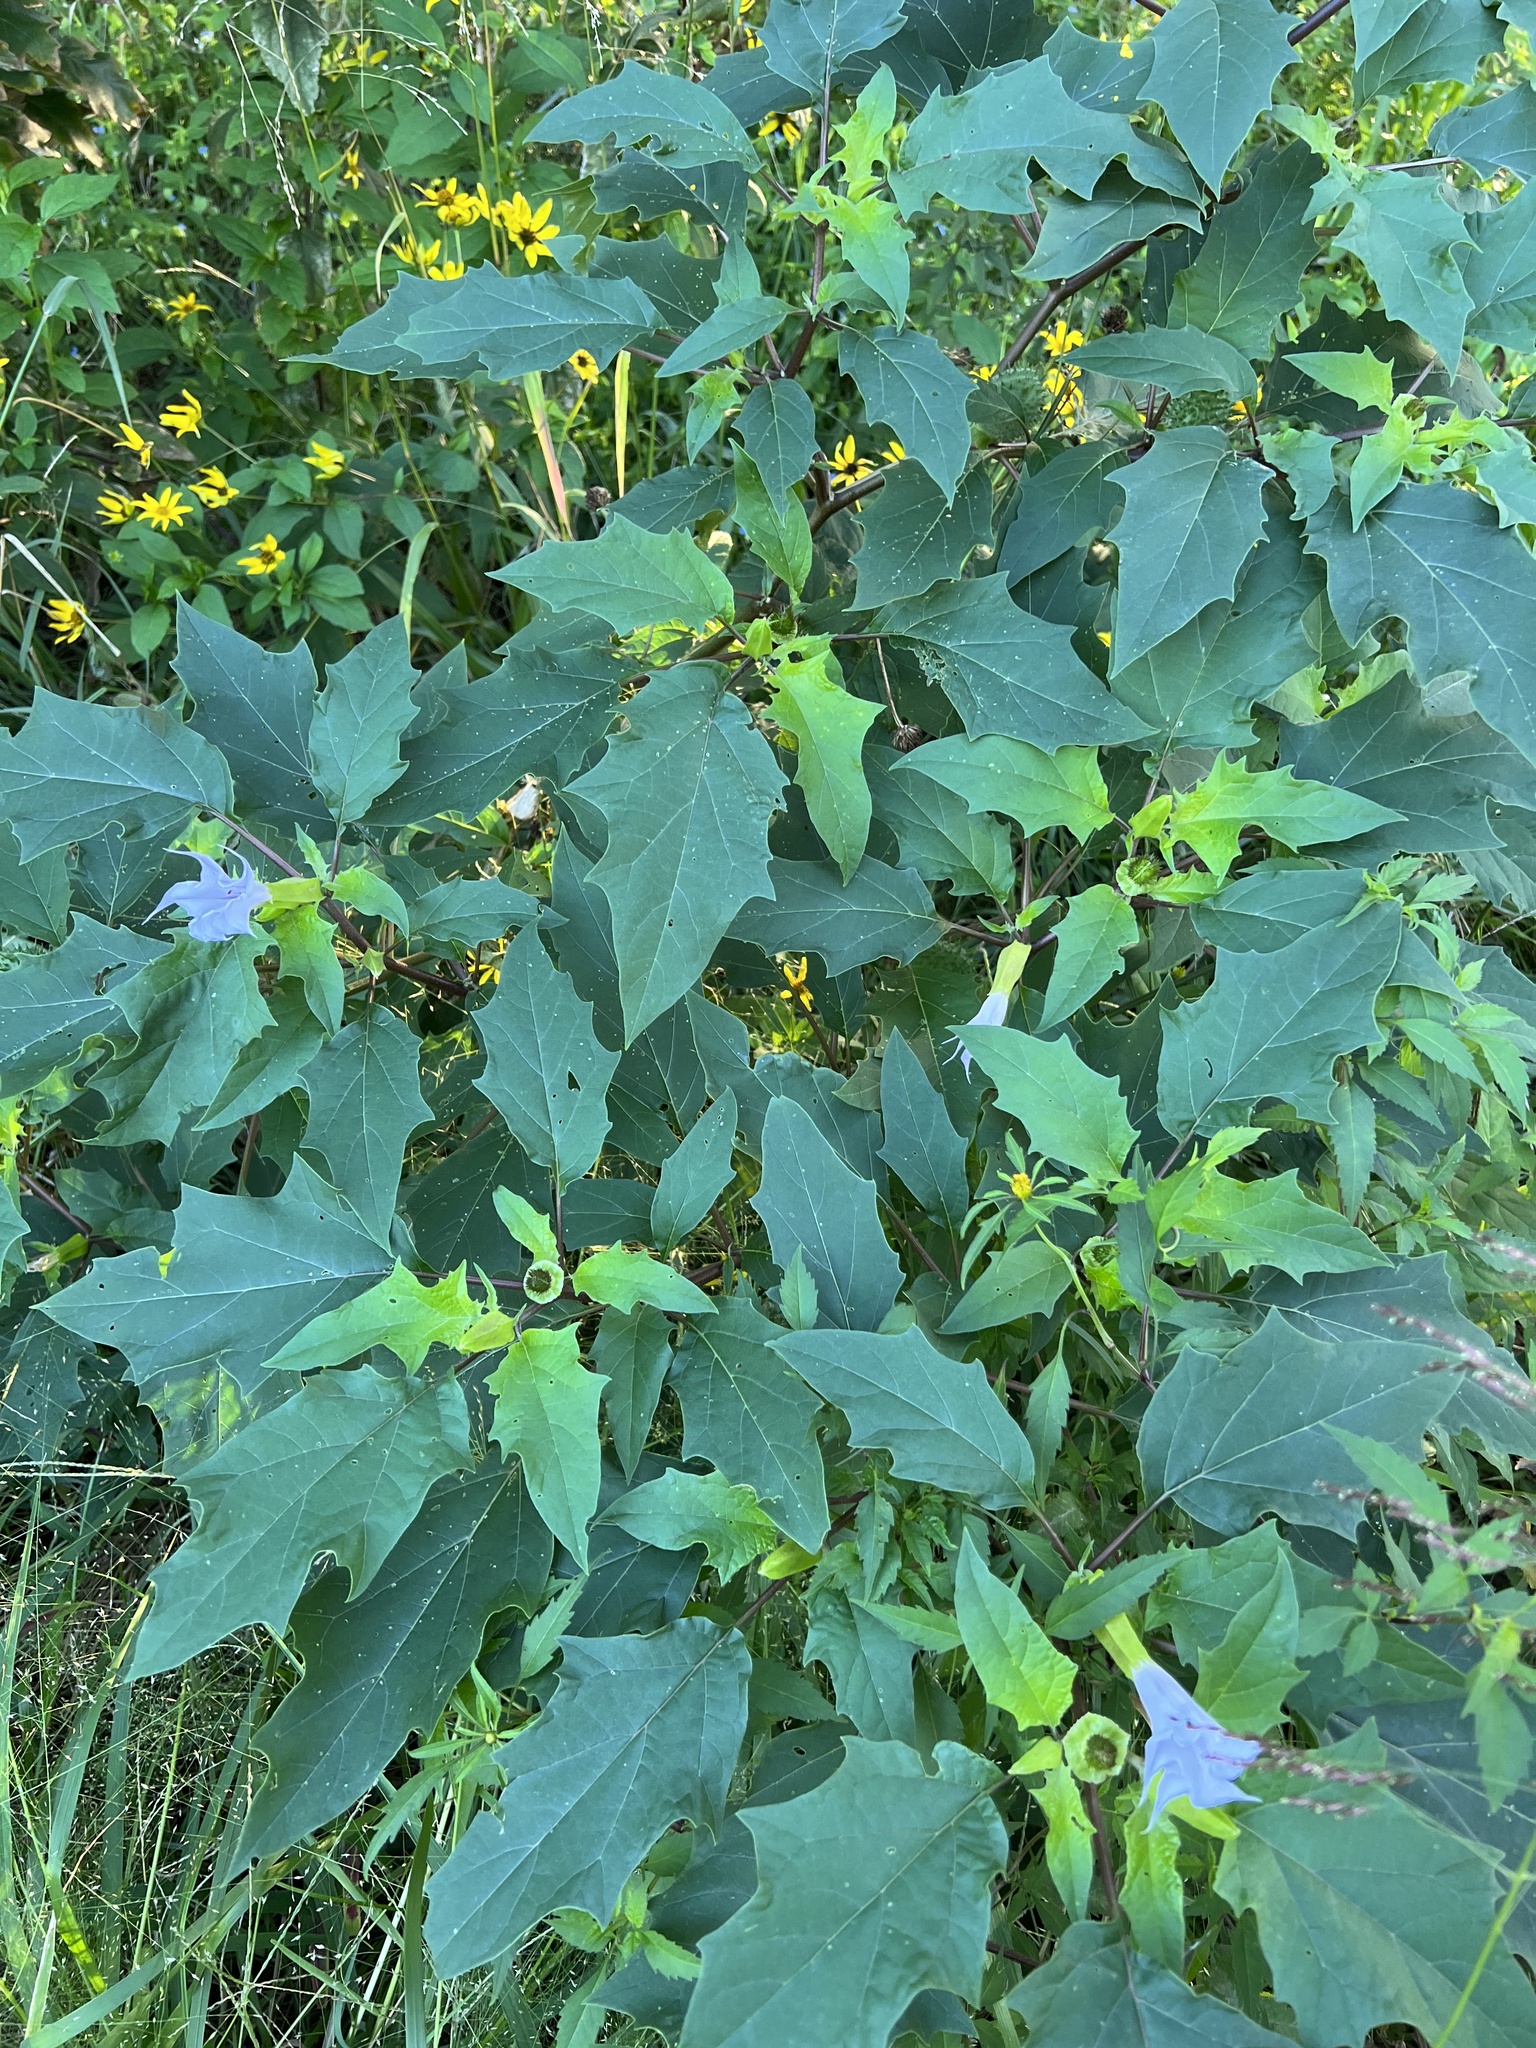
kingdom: Plantae
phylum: Tracheophyta
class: Magnoliopsida
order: Solanales
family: Solanaceae
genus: Datura
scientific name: Datura stramonium
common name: Thorn-apple
